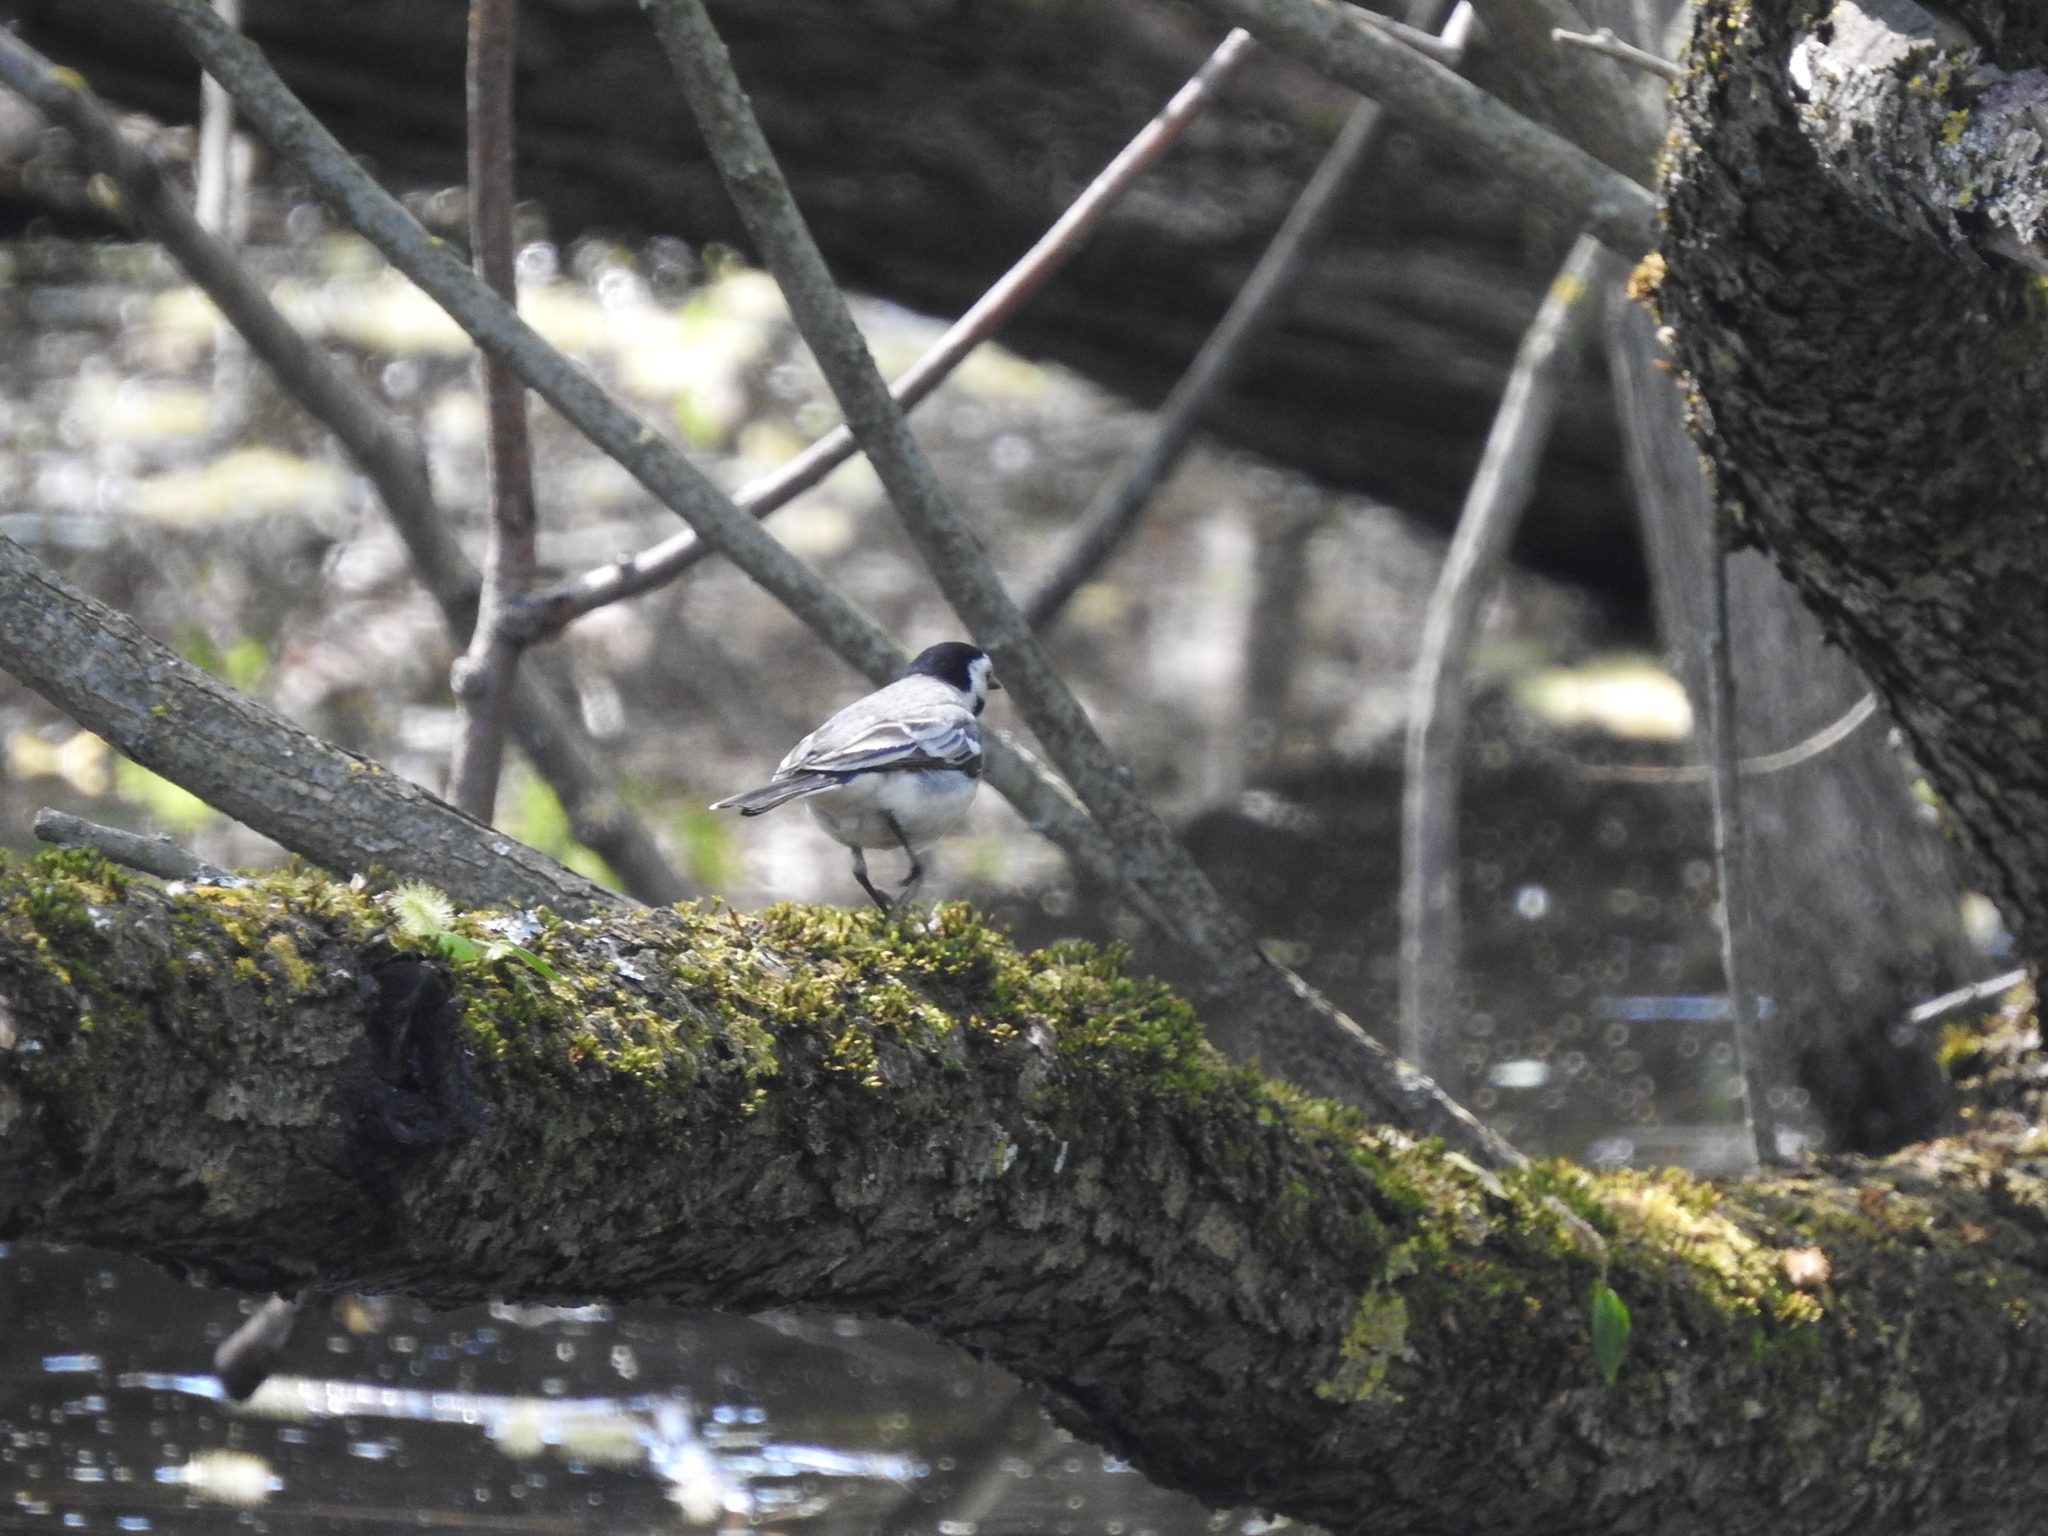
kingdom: Animalia
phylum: Chordata
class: Aves
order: Passeriformes
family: Motacillidae
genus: Motacilla
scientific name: Motacilla alba
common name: White wagtail
